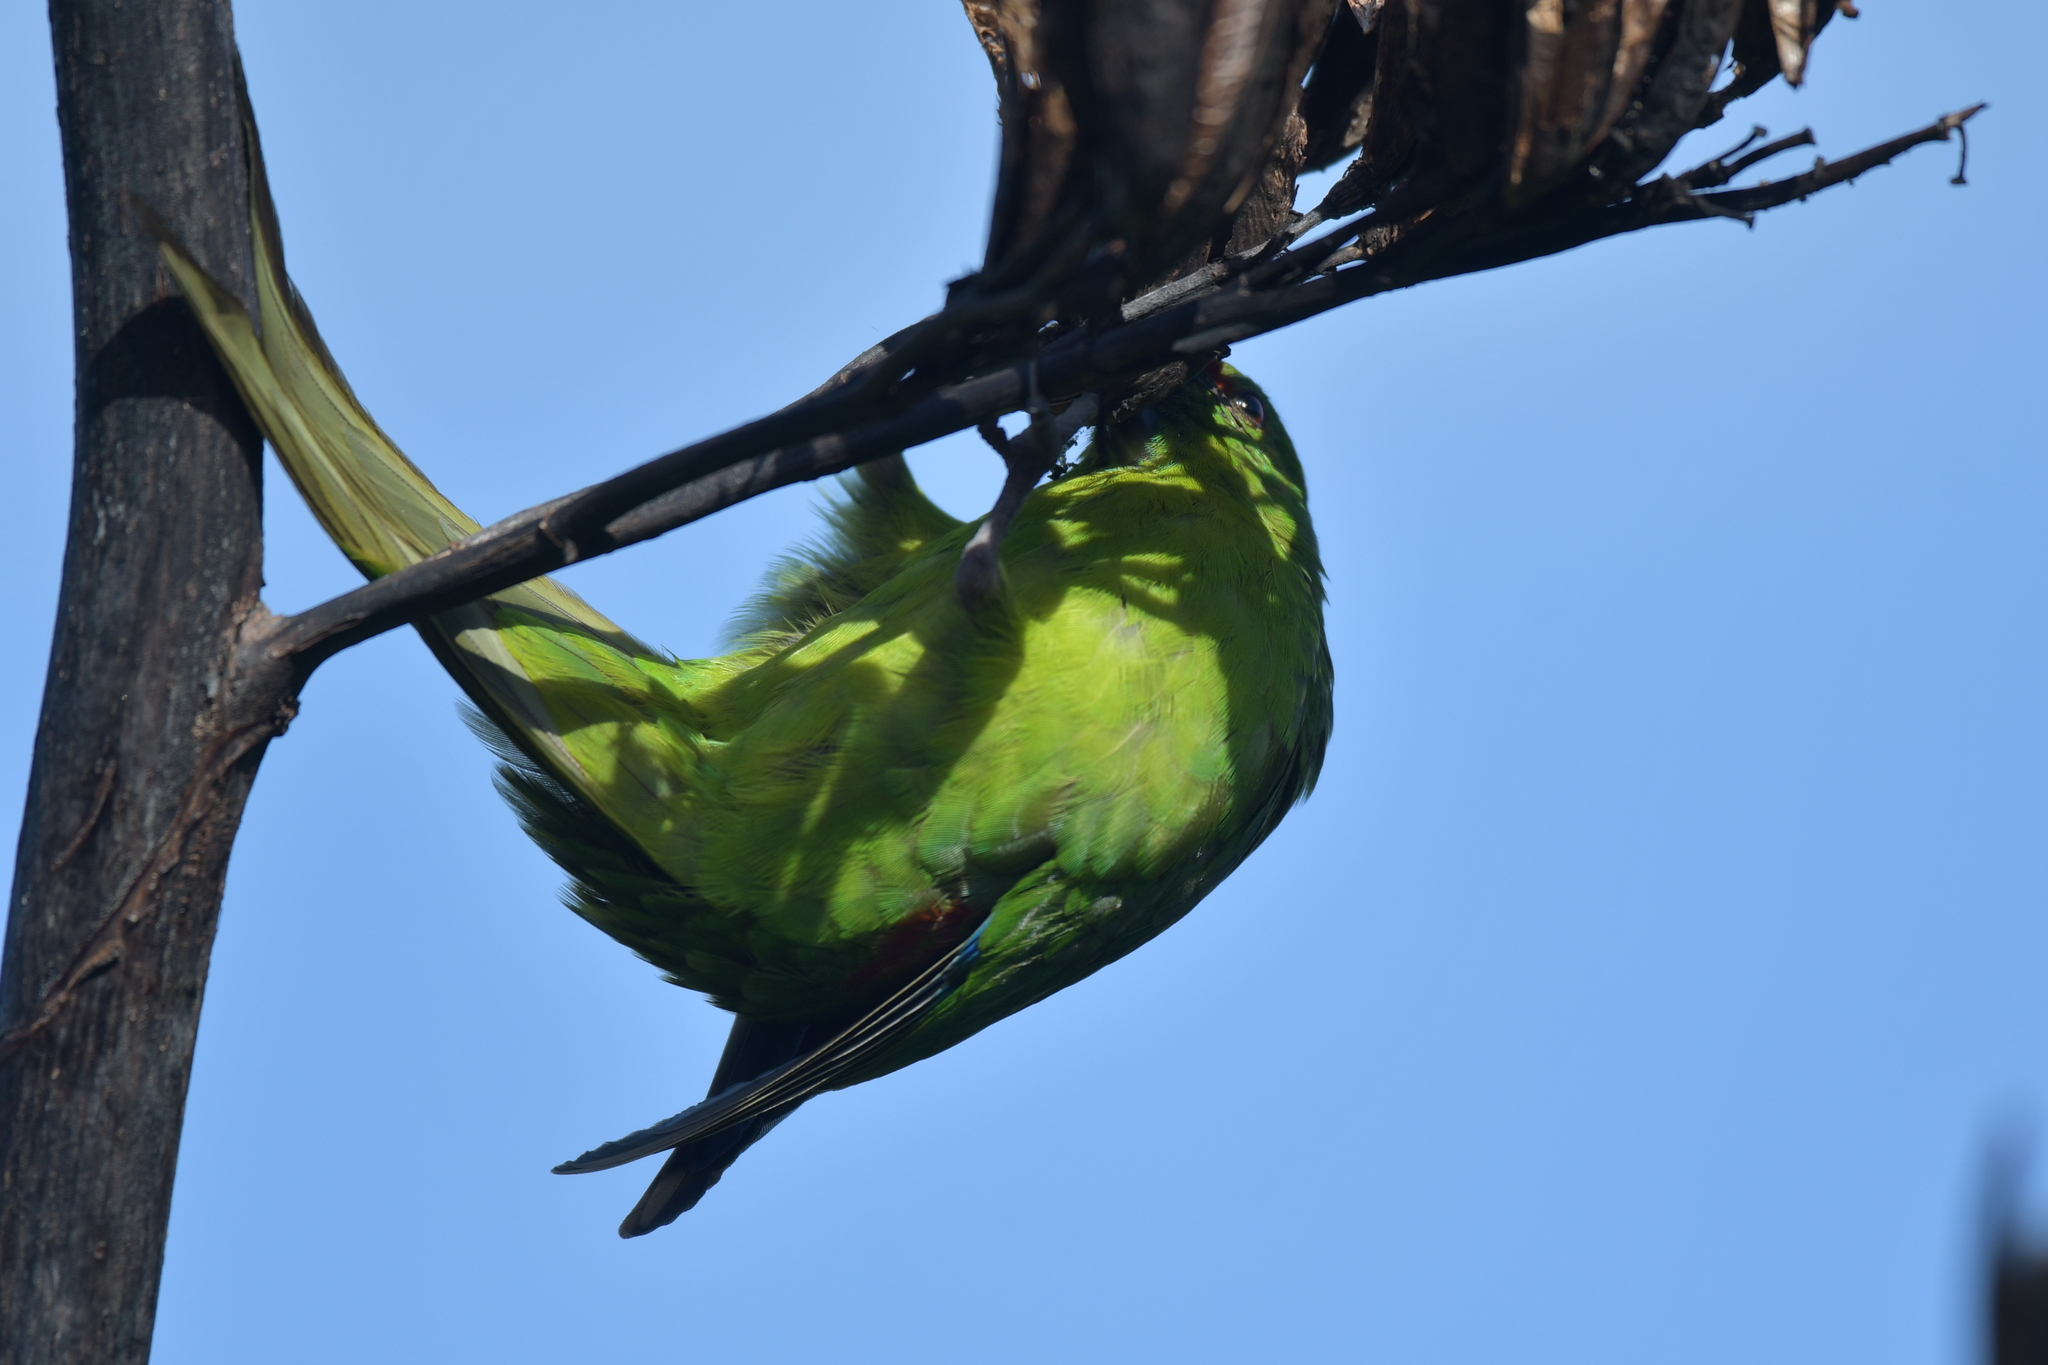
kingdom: Animalia
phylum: Chordata
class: Aves
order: Psittaciformes
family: Psittacidae
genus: Cyanoramphus
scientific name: Cyanoramphus auriceps
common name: Yellow-crowned parakeet
